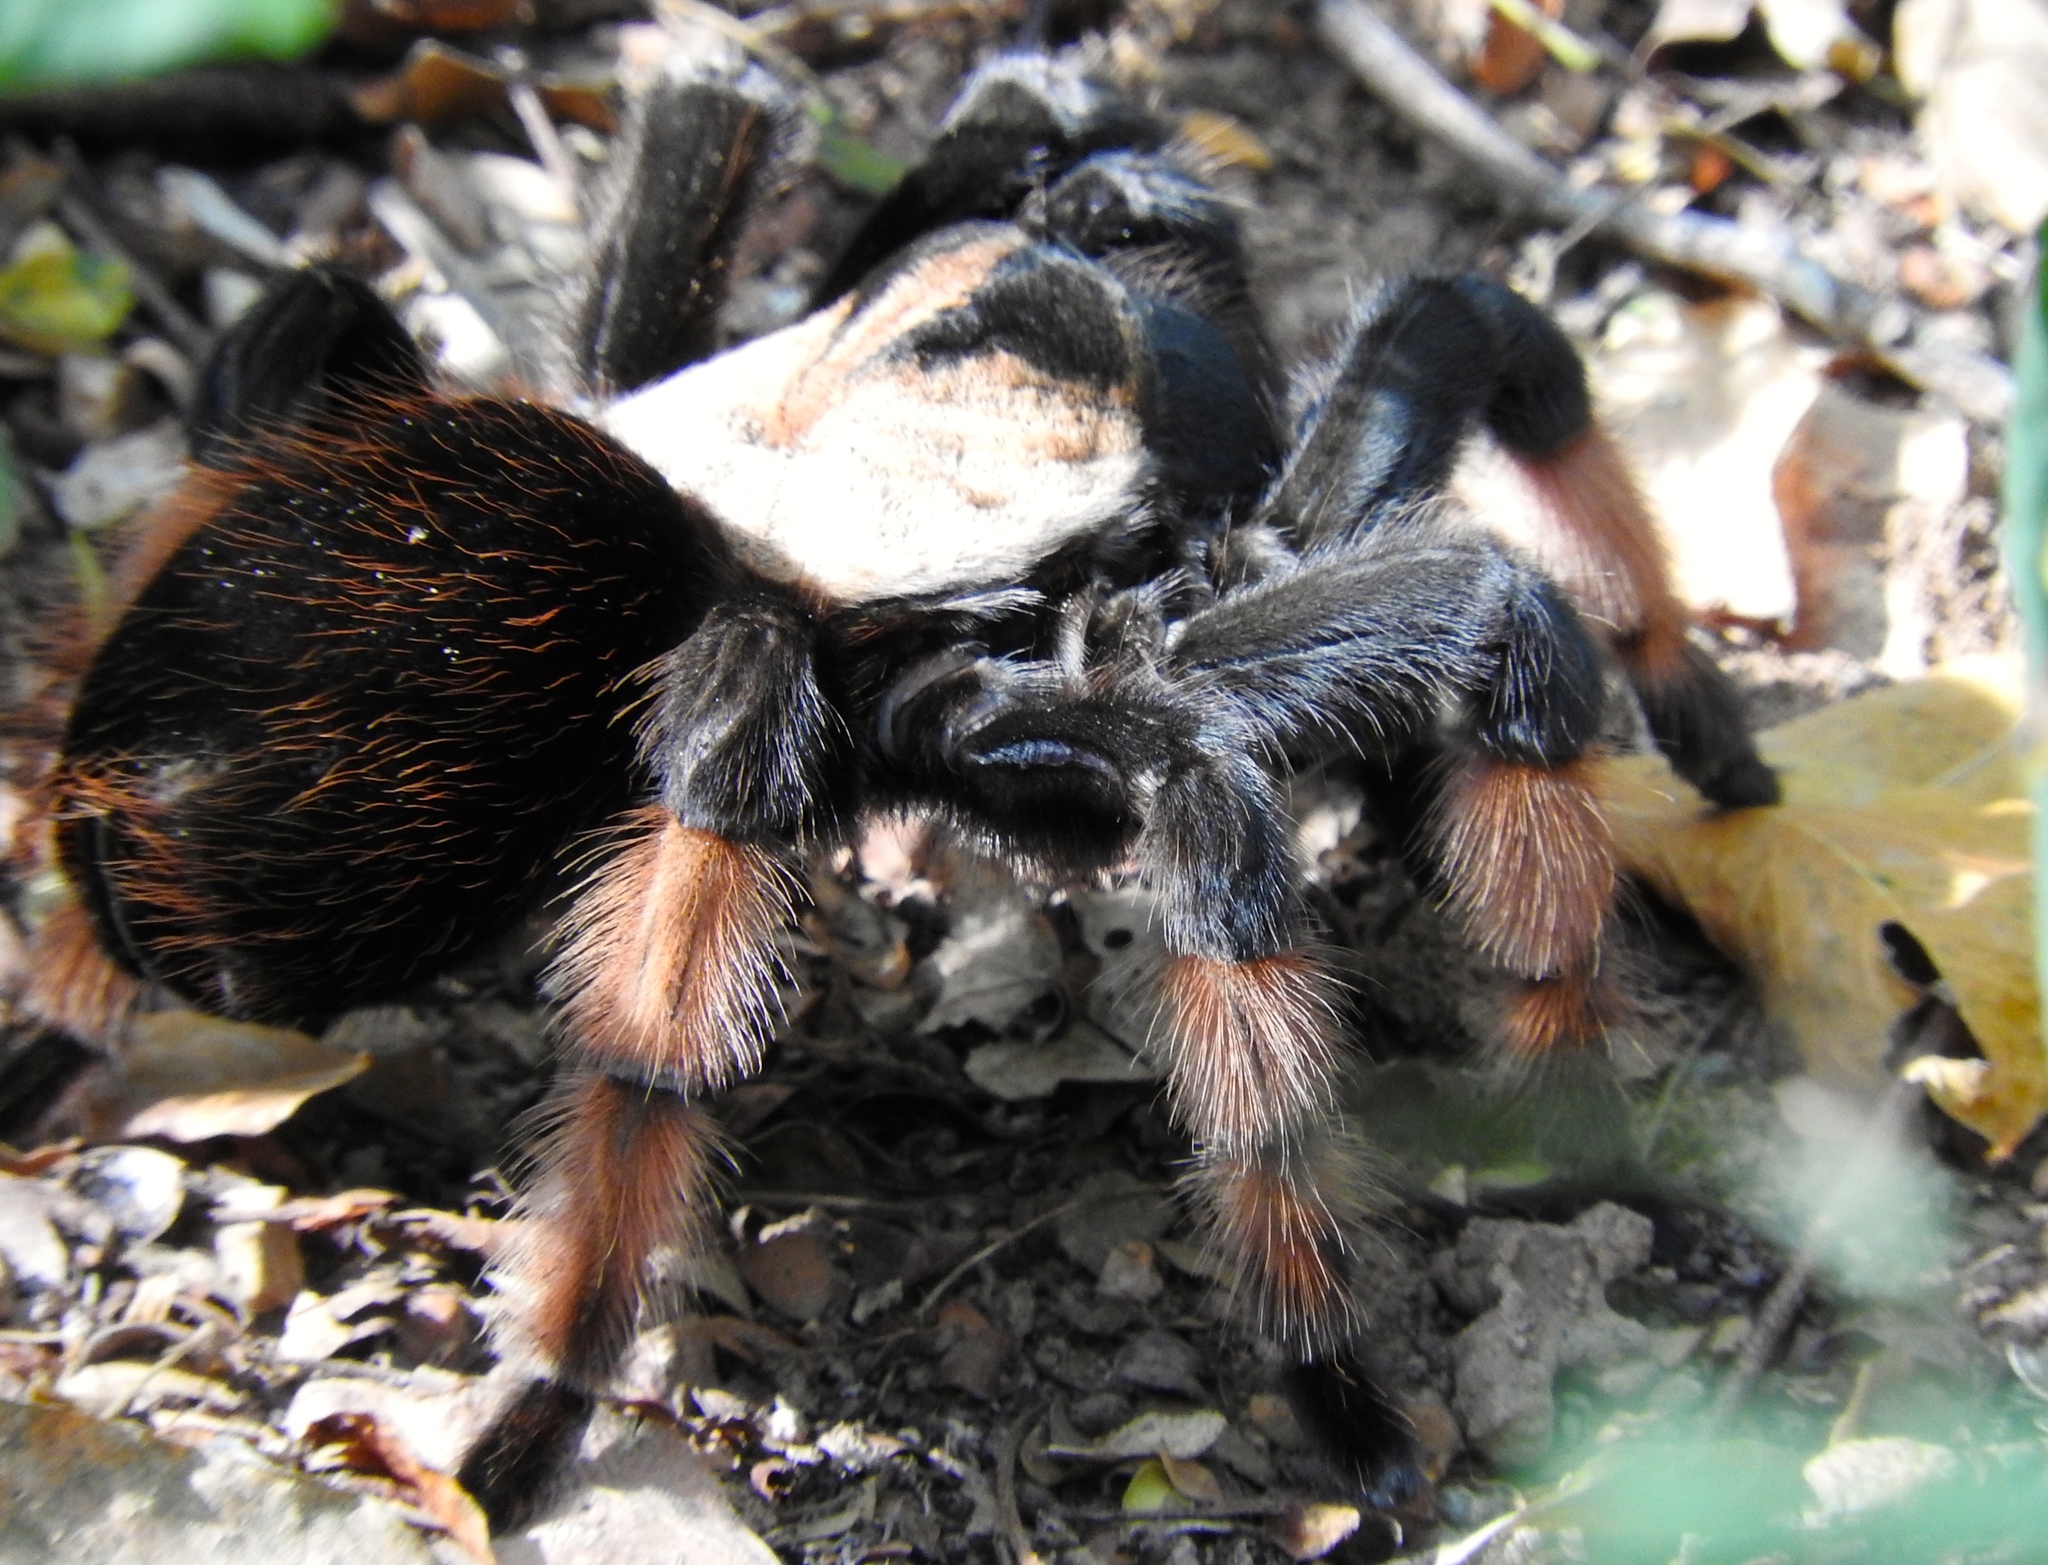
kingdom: Animalia
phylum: Arthropoda
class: Arachnida
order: Araneae
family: Theraphosidae
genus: Brachypelma
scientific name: Brachypelma emilia
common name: Mexican redleg
